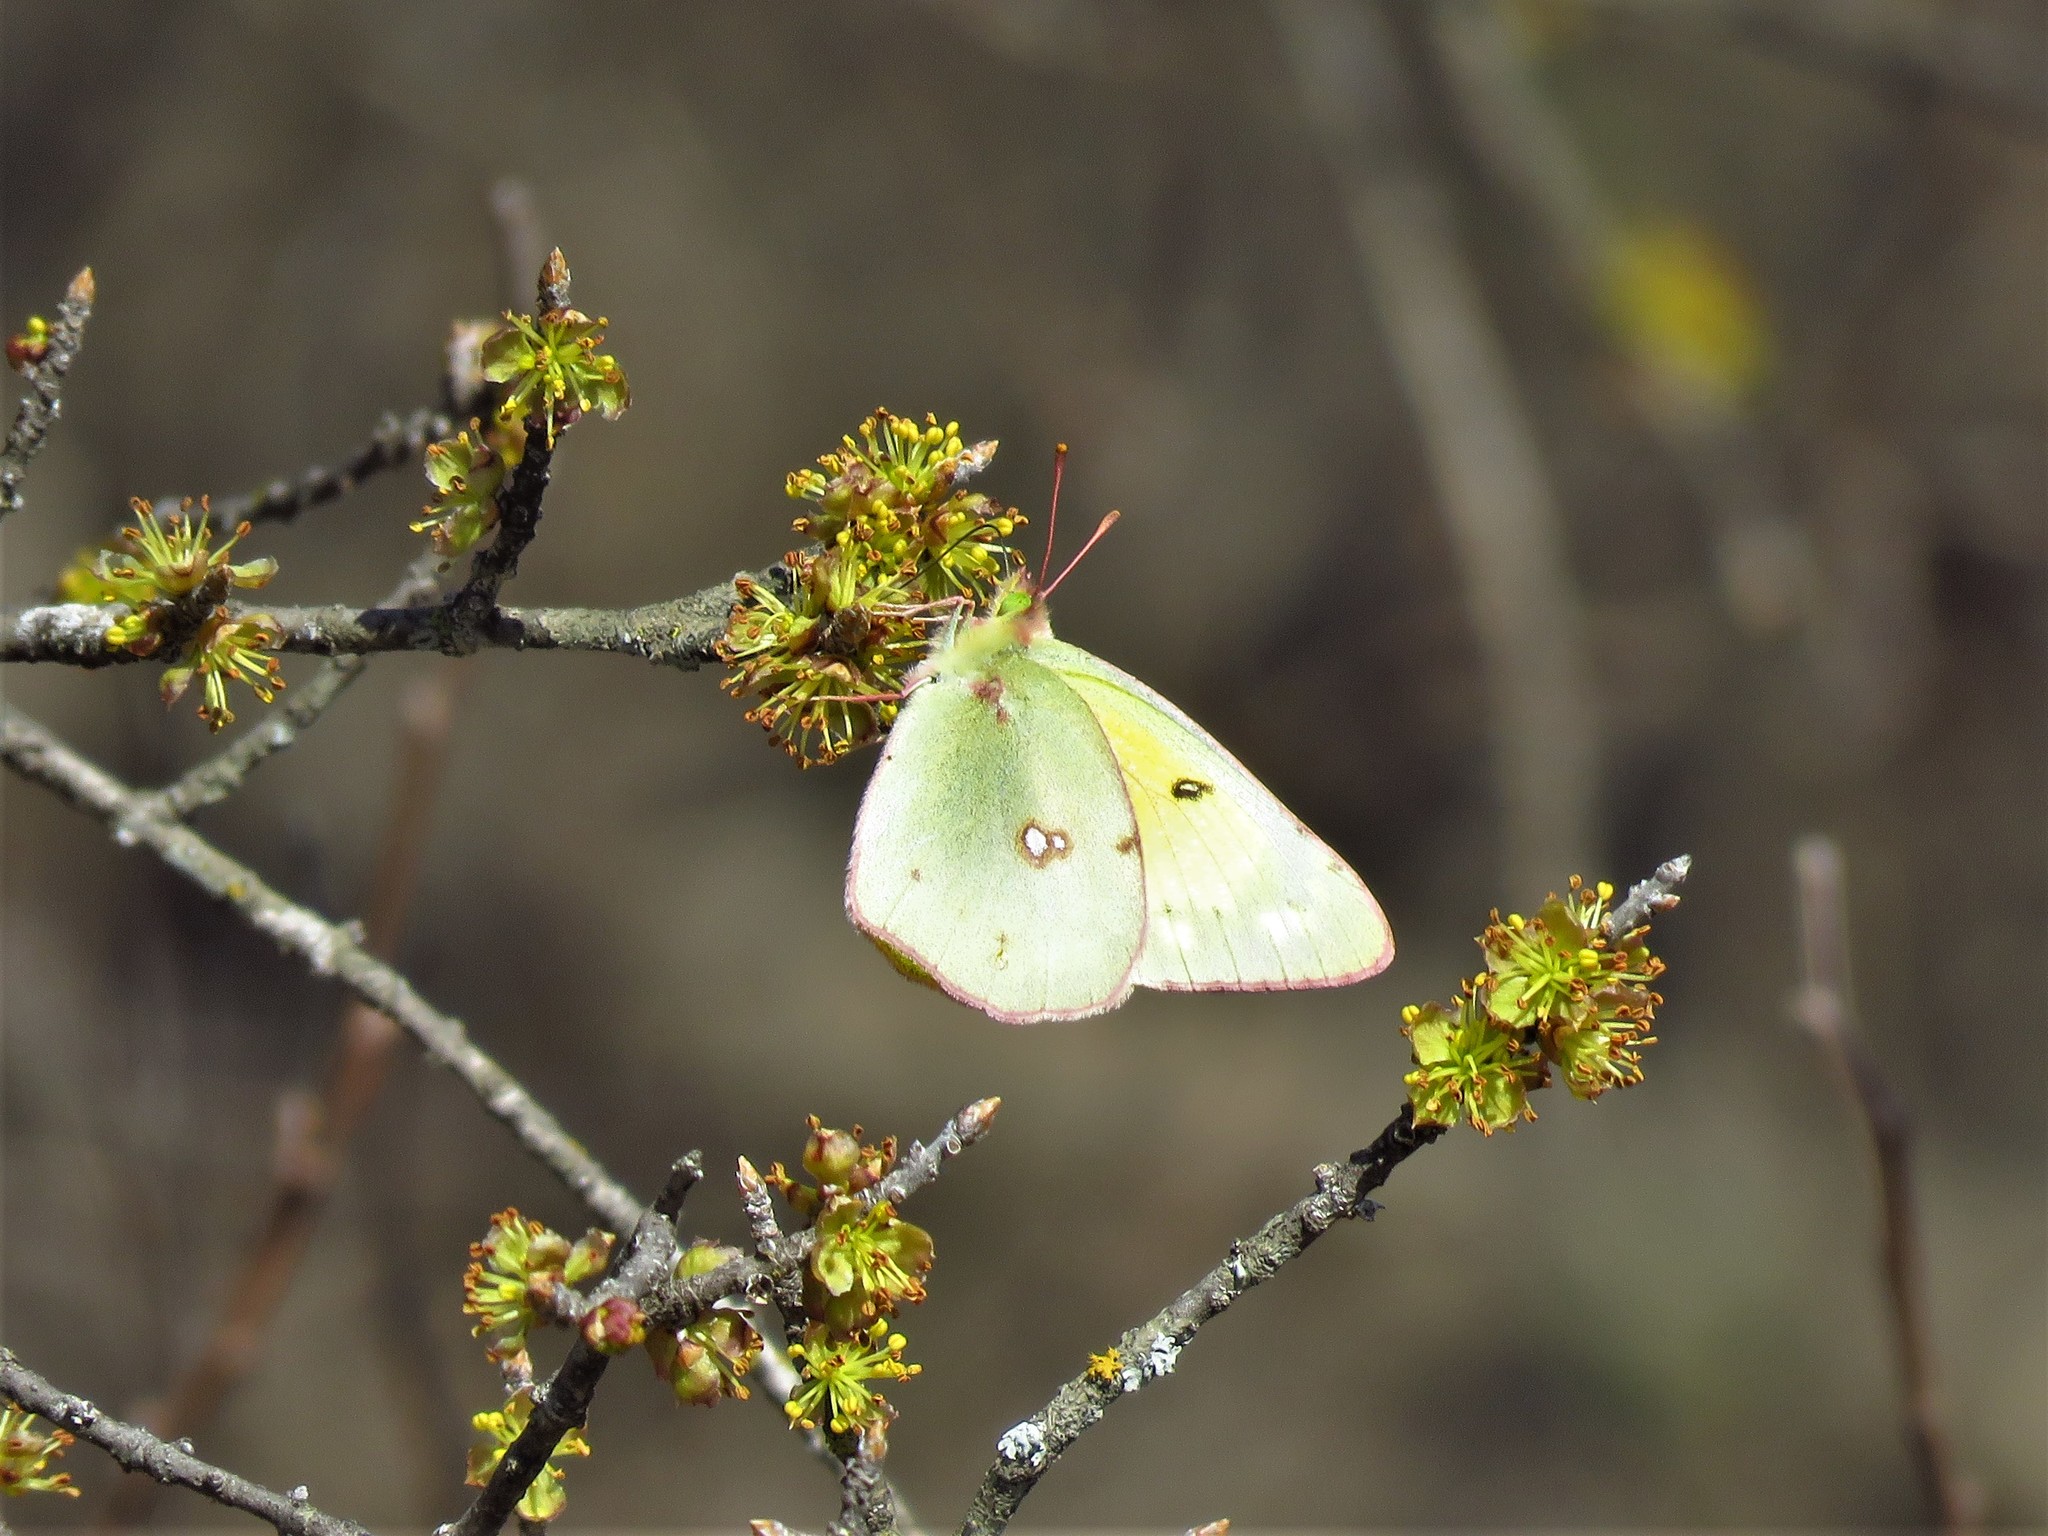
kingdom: Animalia
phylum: Arthropoda
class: Insecta
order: Lepidoptera
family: Pieridae
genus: Colias
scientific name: Colias eurytheme
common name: Alfalfa butterfly
